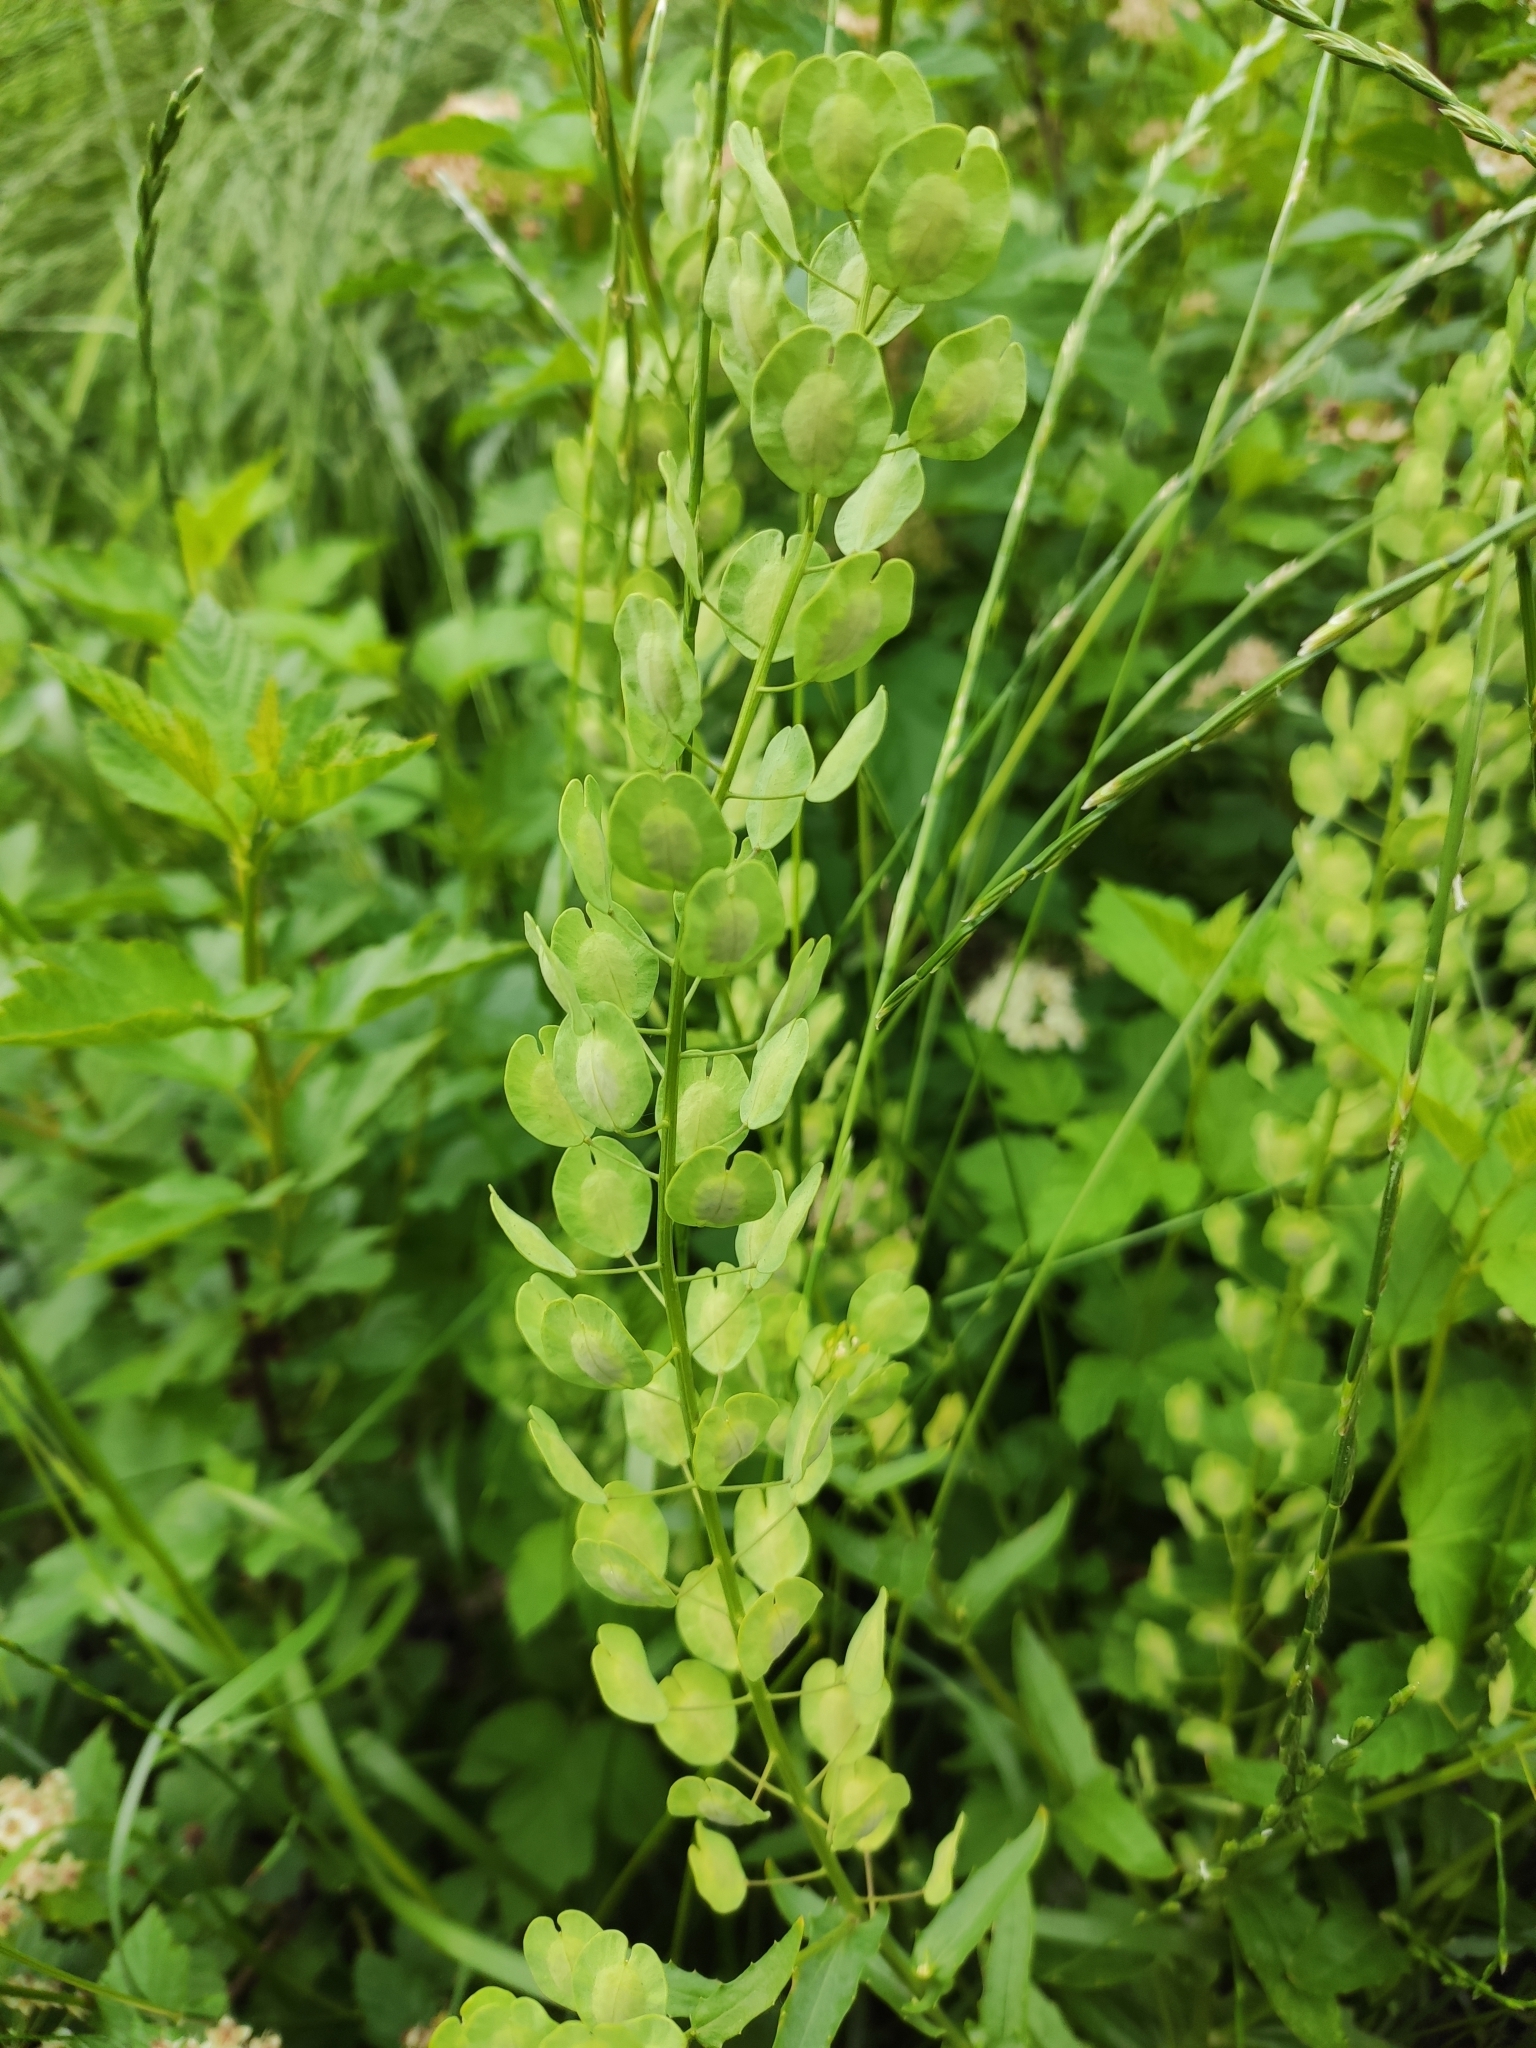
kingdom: Plantae
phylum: Tracheophyta
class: Magnoliopsida
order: Brassicales
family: Brassicaceae
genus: Thlaspi
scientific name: Thlaspi arvense
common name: Field pennycress
